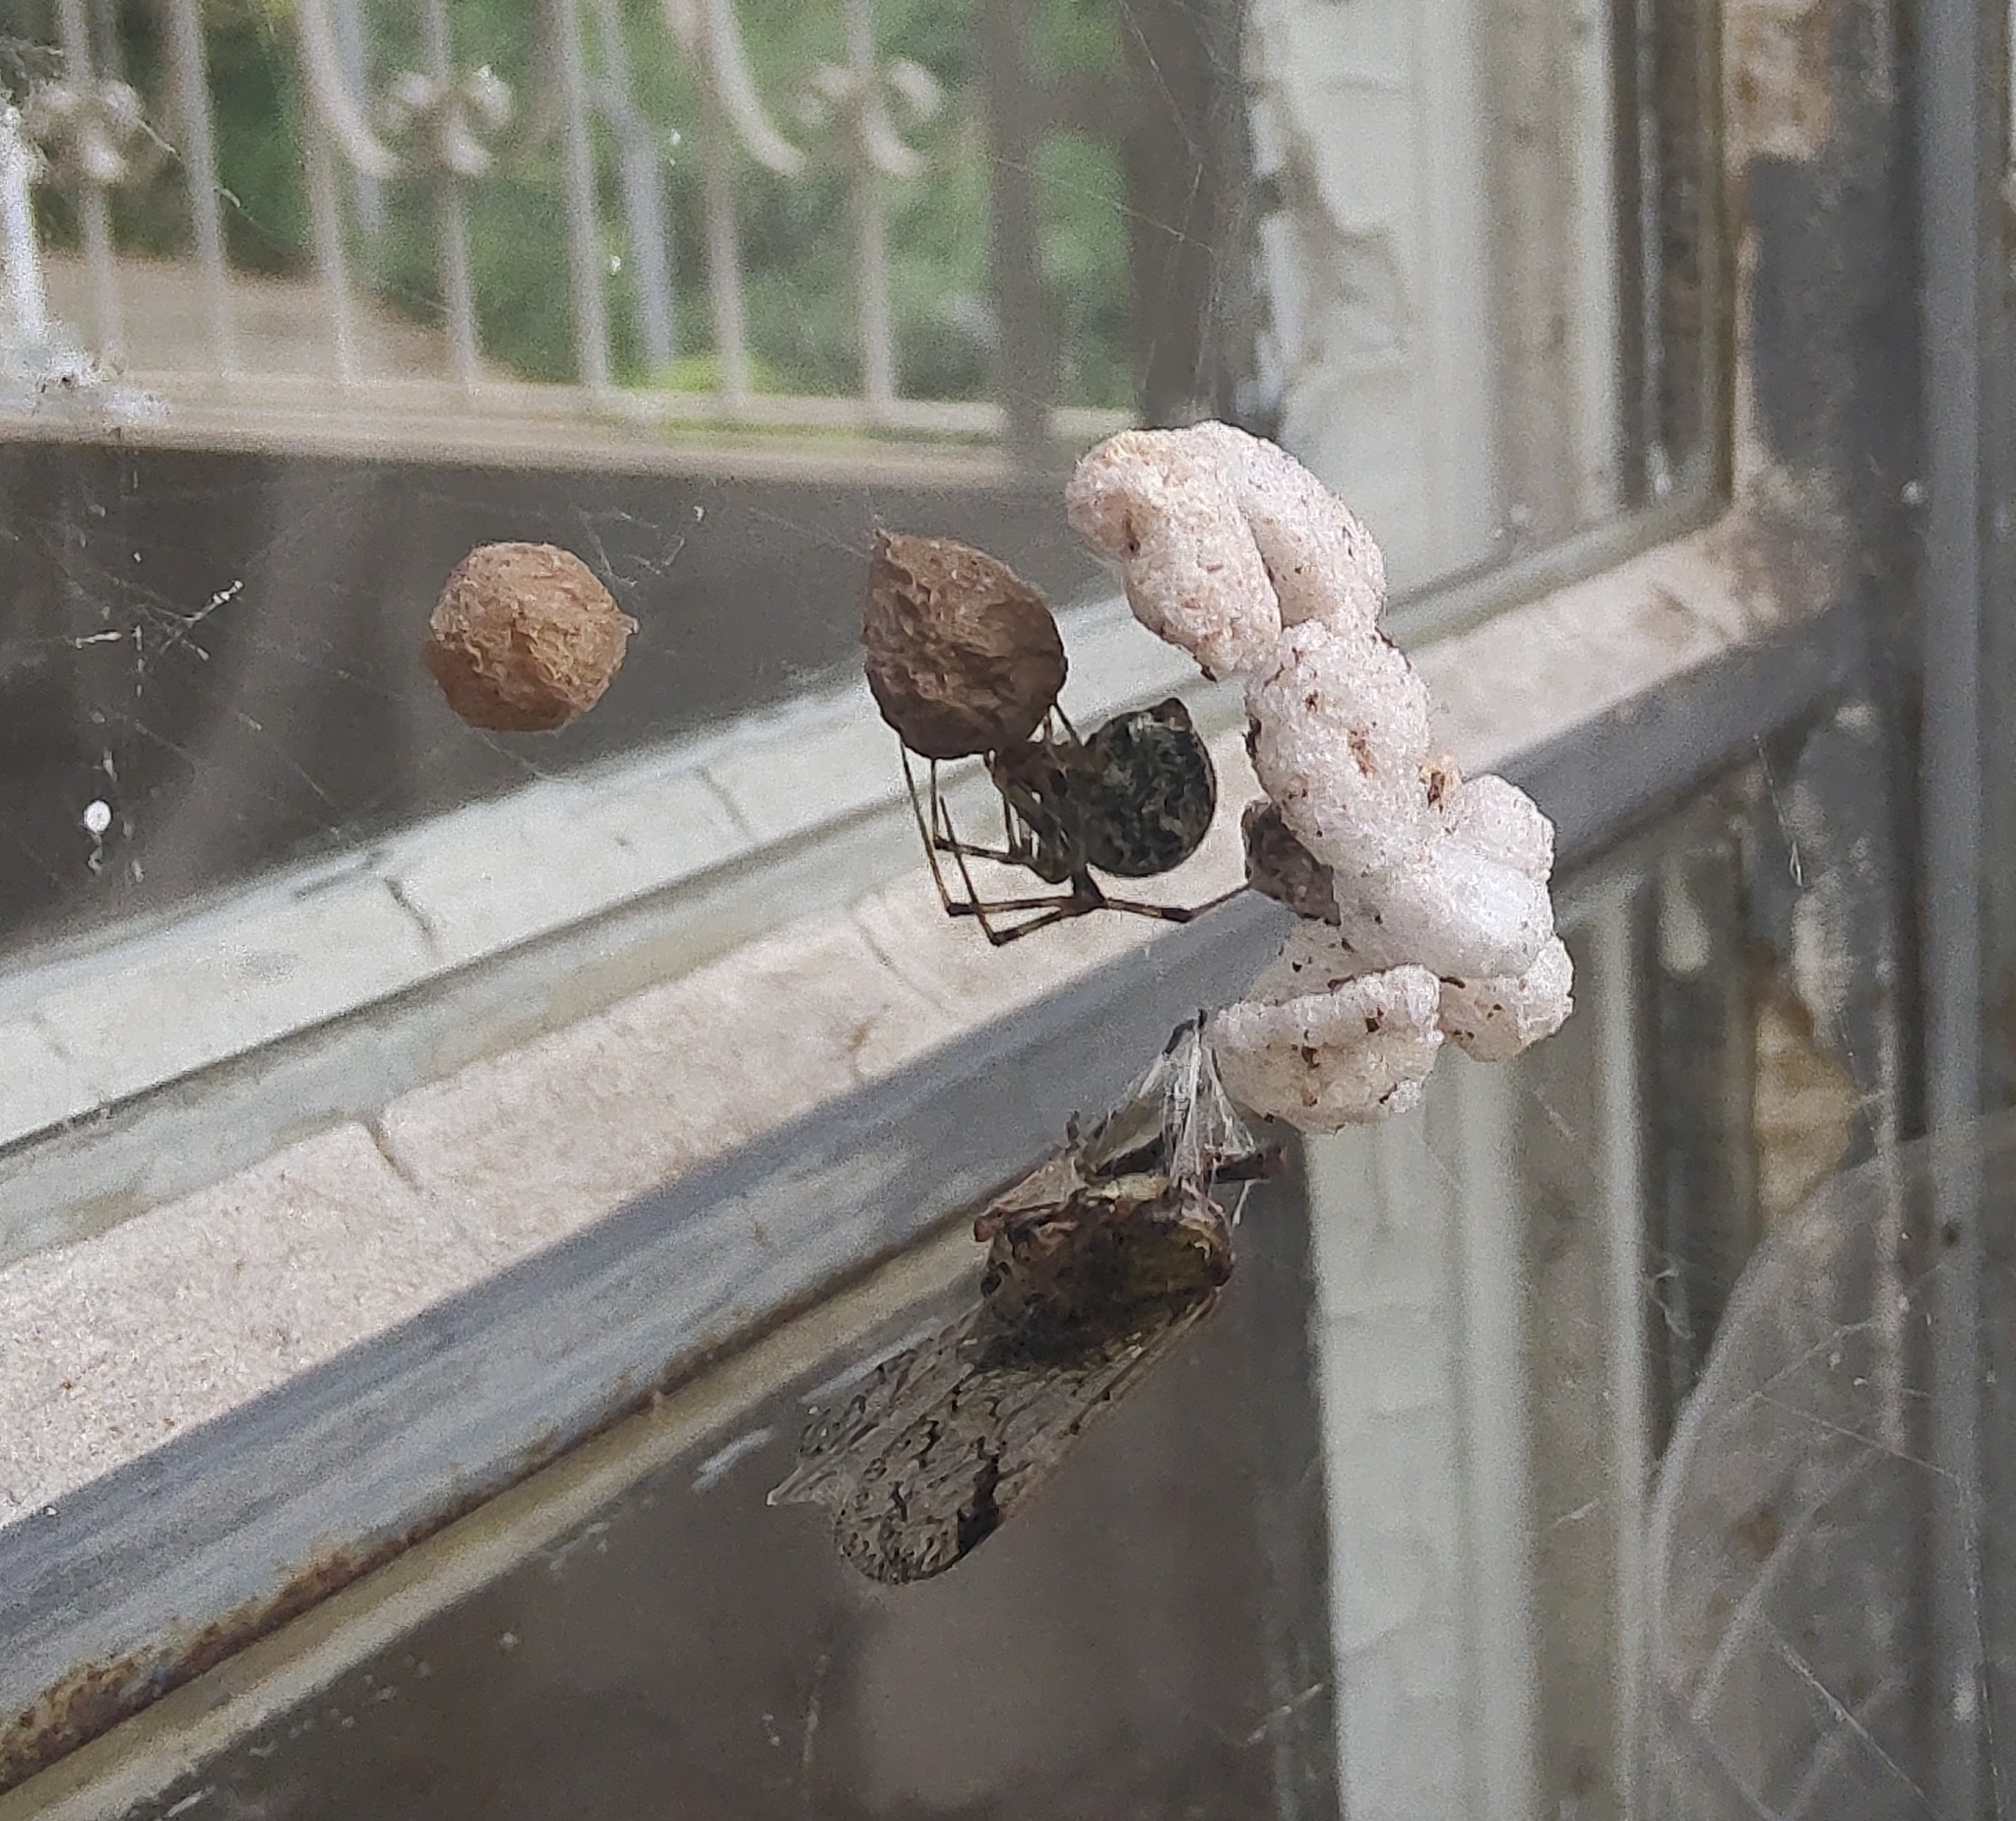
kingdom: Animalia
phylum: Arthropoda
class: Arachnida
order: Araneae
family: Theridiidae
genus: Parasteatoda
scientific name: Parasteatoda tepidariorum
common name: Common house spider
